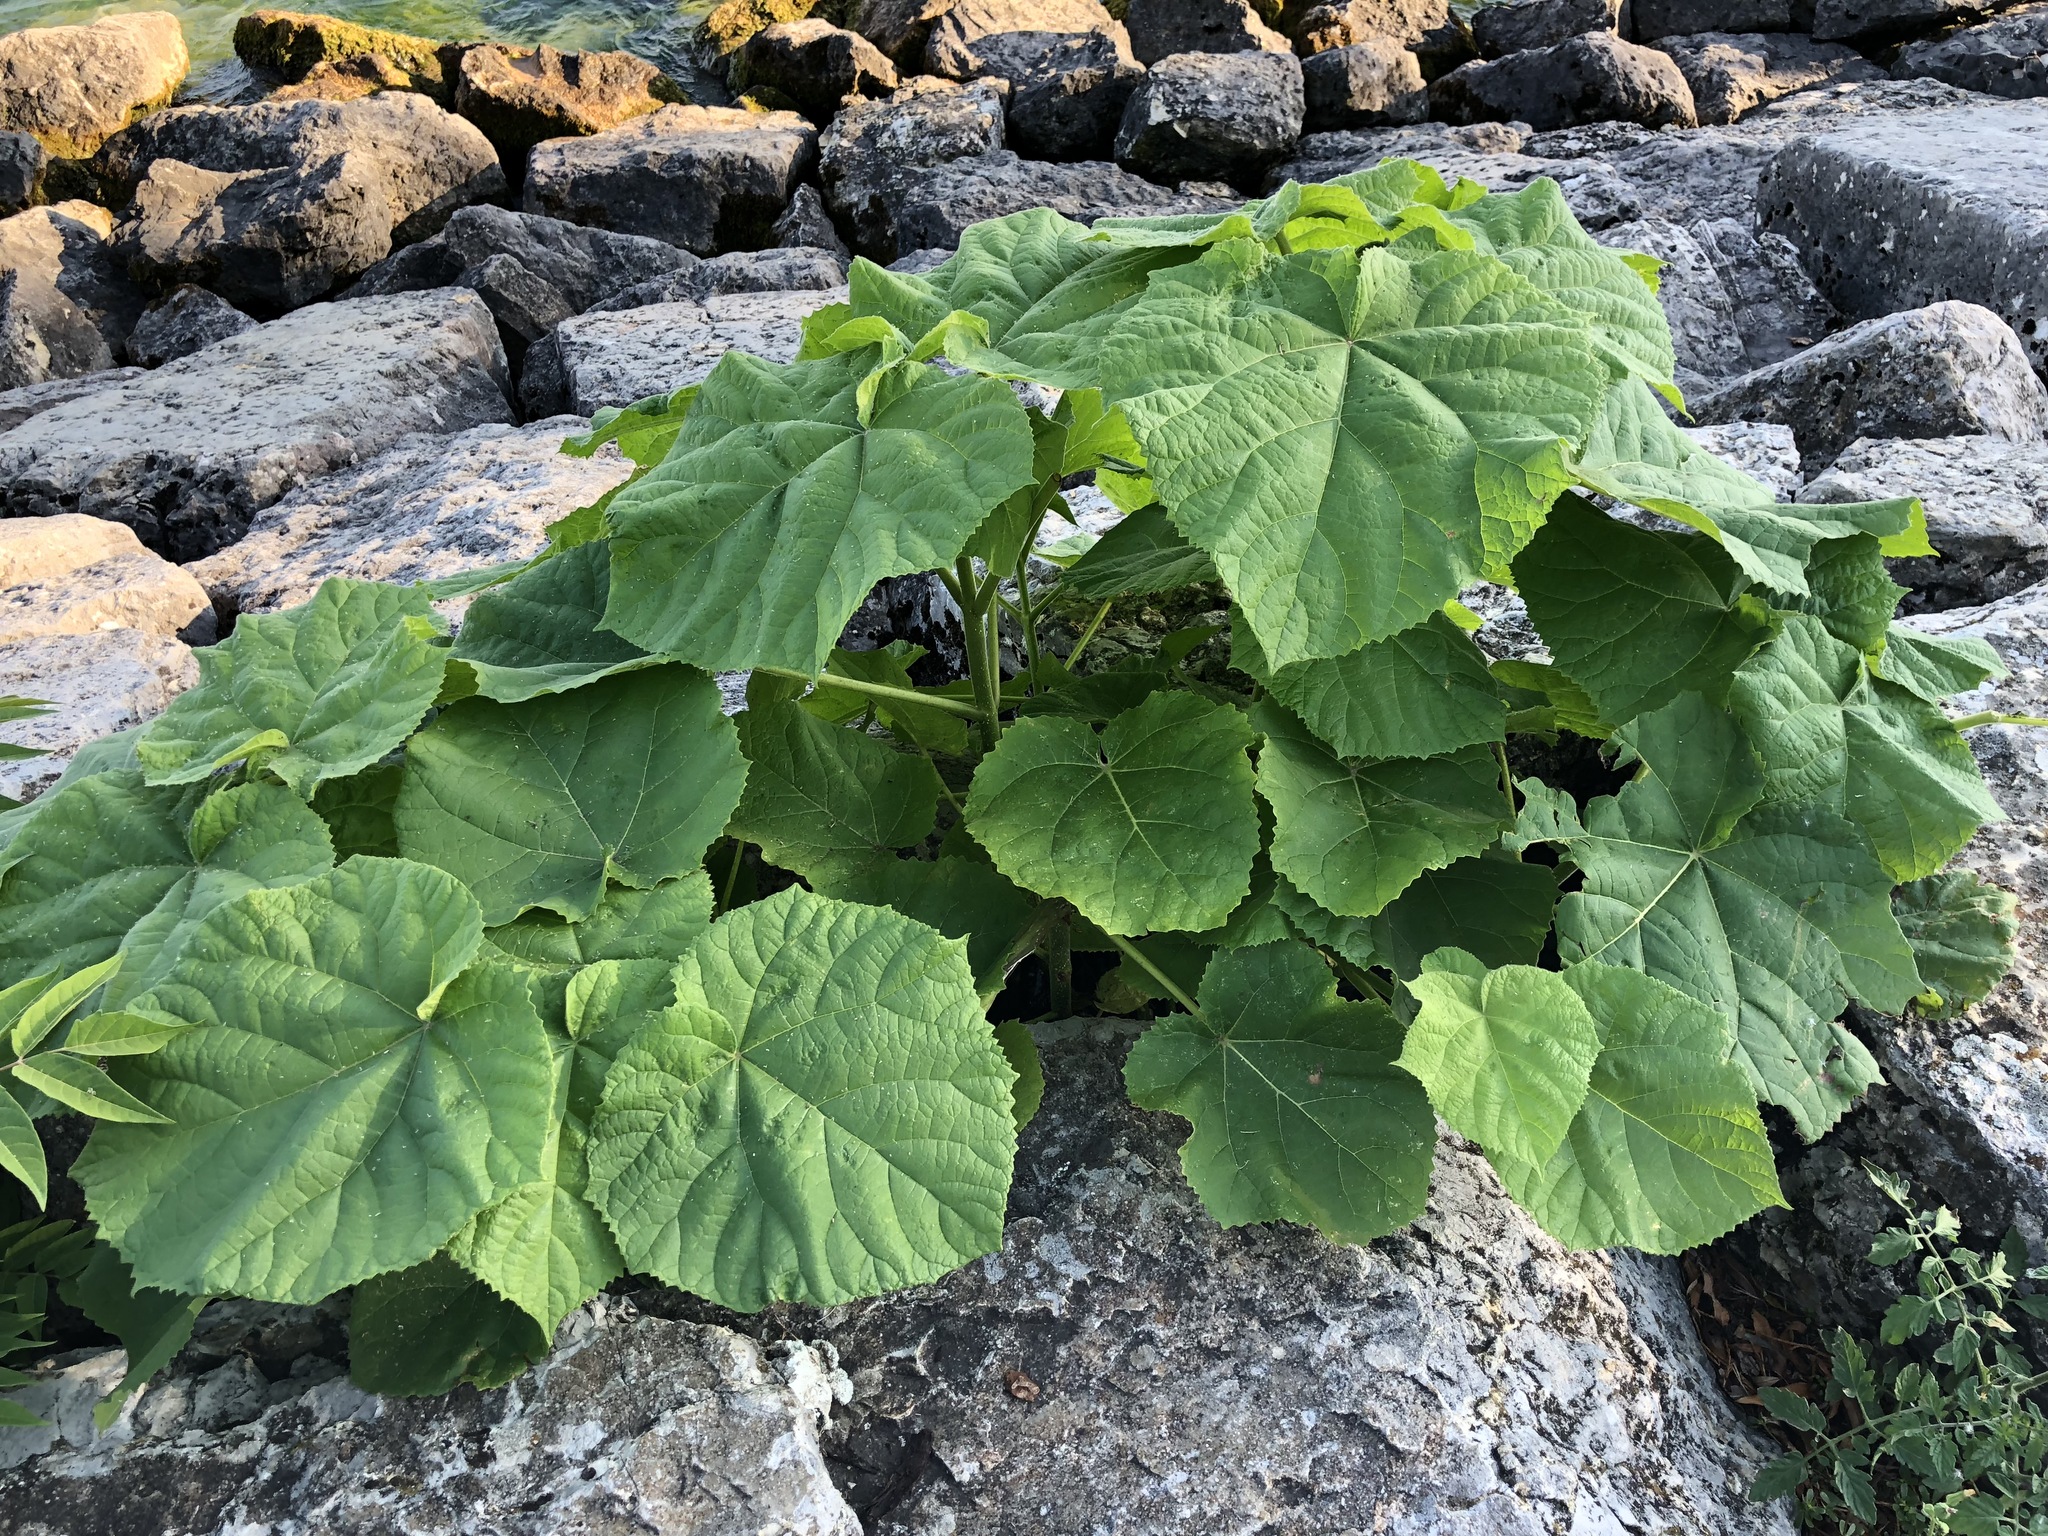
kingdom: Plantae
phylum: Tracheophyta
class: Magnoliopsida
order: Lamiales
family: Paulowniaceae
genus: Paulownia
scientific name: Paulownia tomentosa
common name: Foxglove-tree
